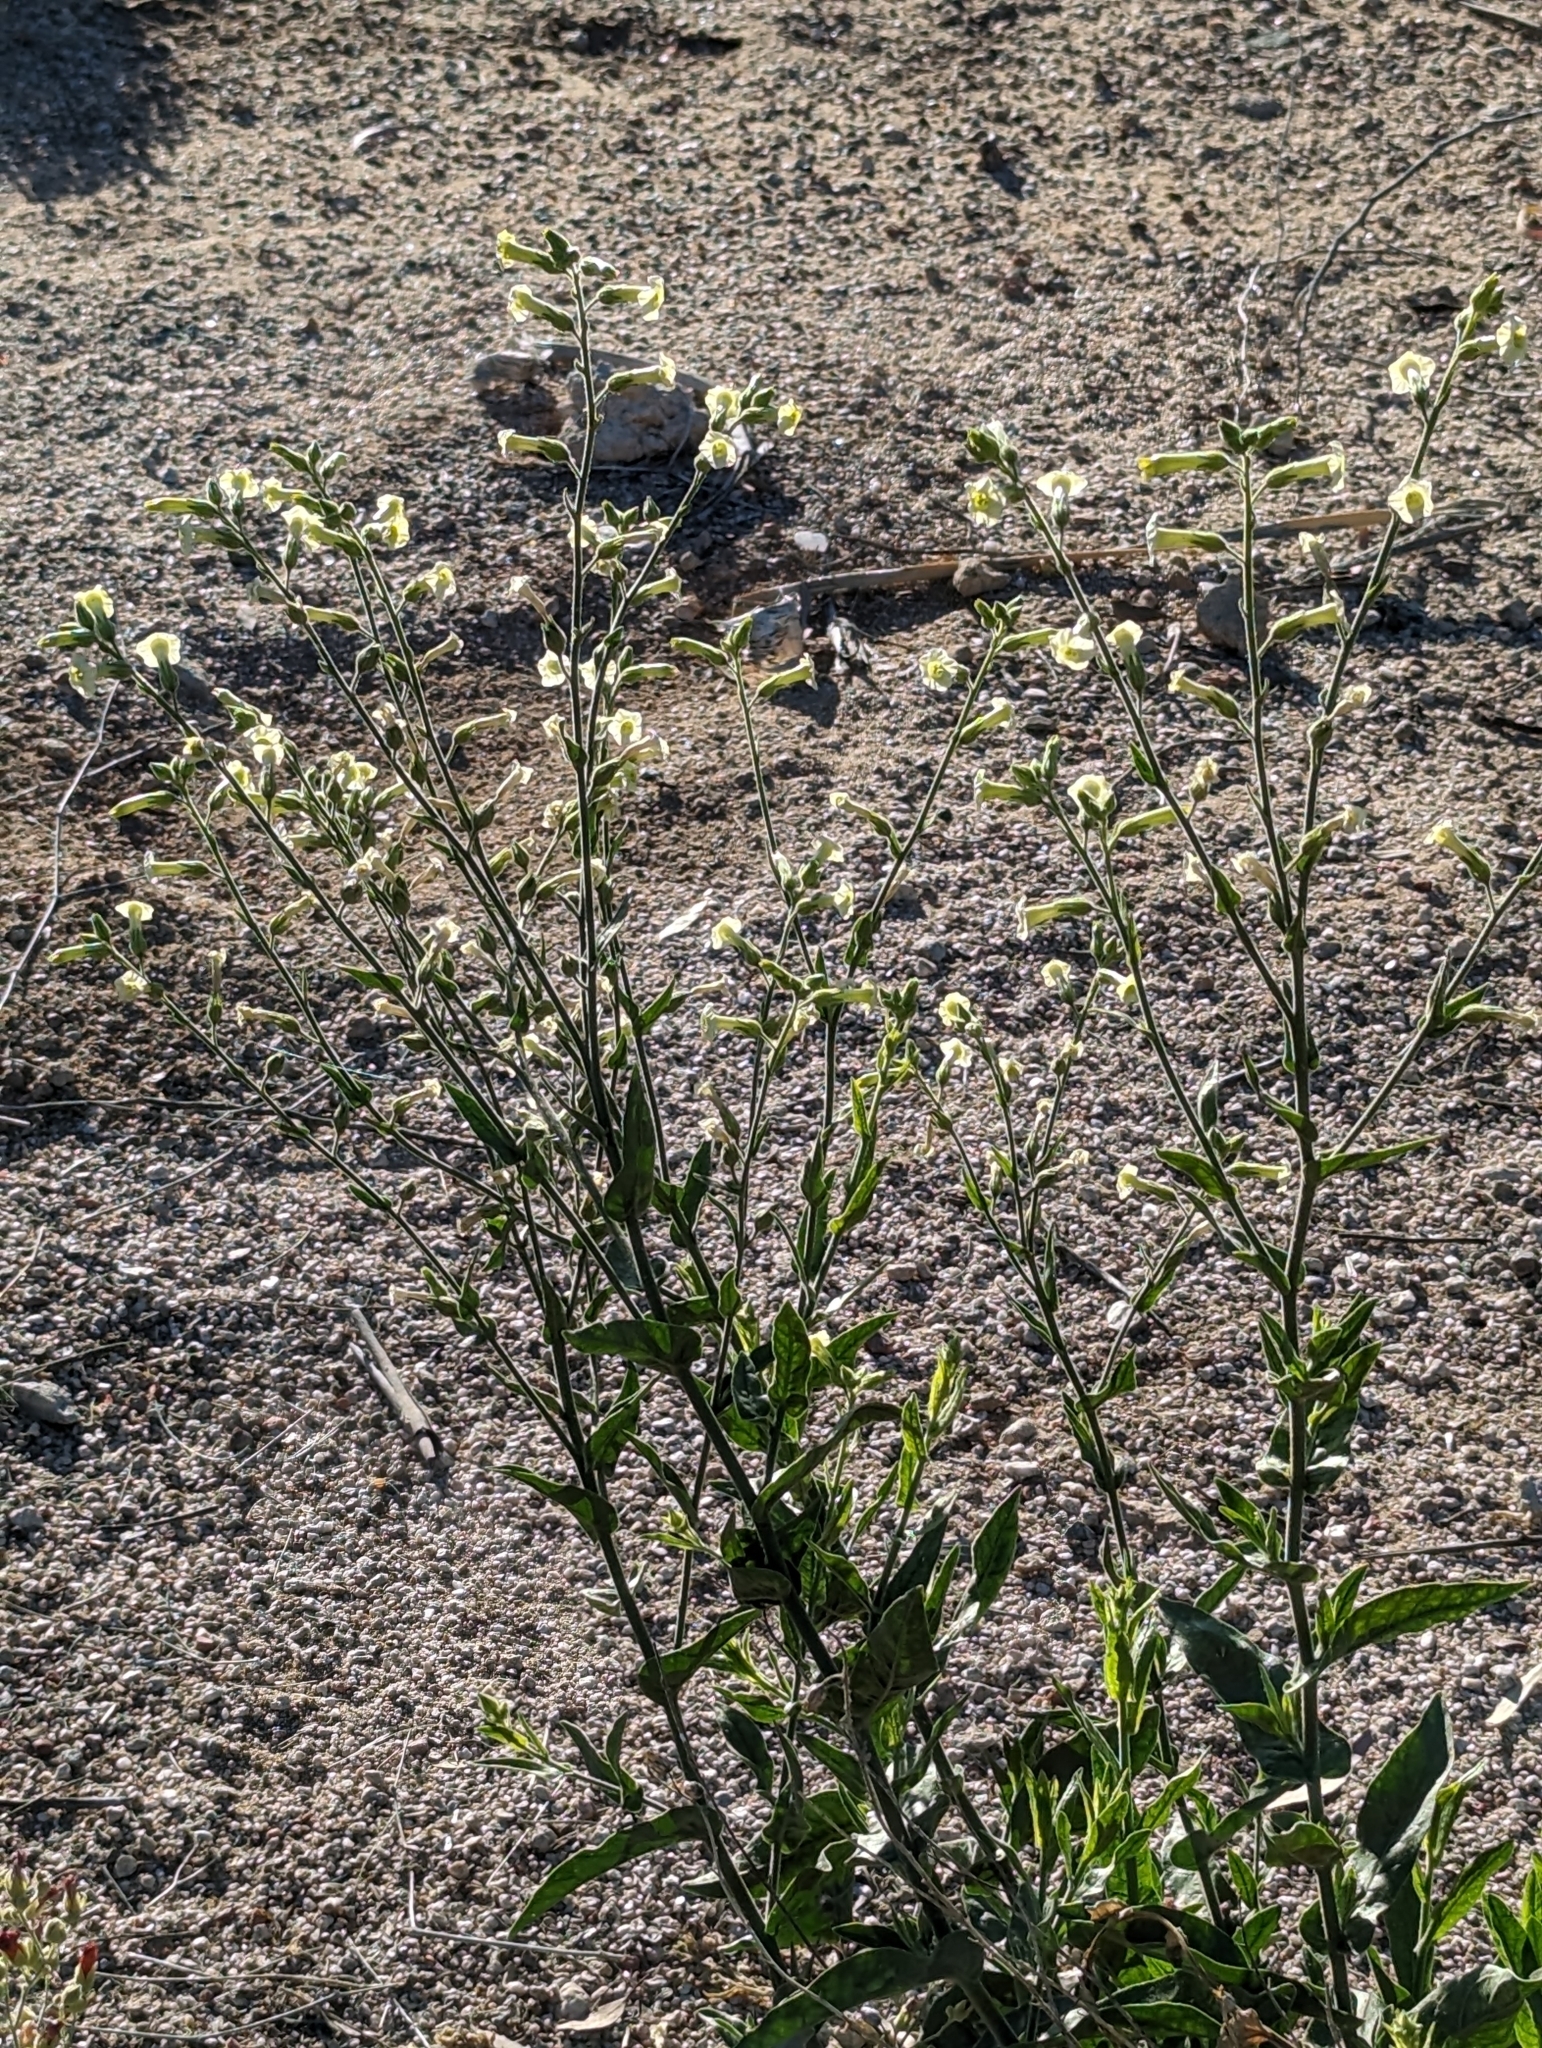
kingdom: Plantae
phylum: Tracheophyta
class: Magnoliopsida
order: Solanales
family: Solanaceae
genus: Nicotiana
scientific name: Nicotiana obtusifolia
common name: Desert tobacco
